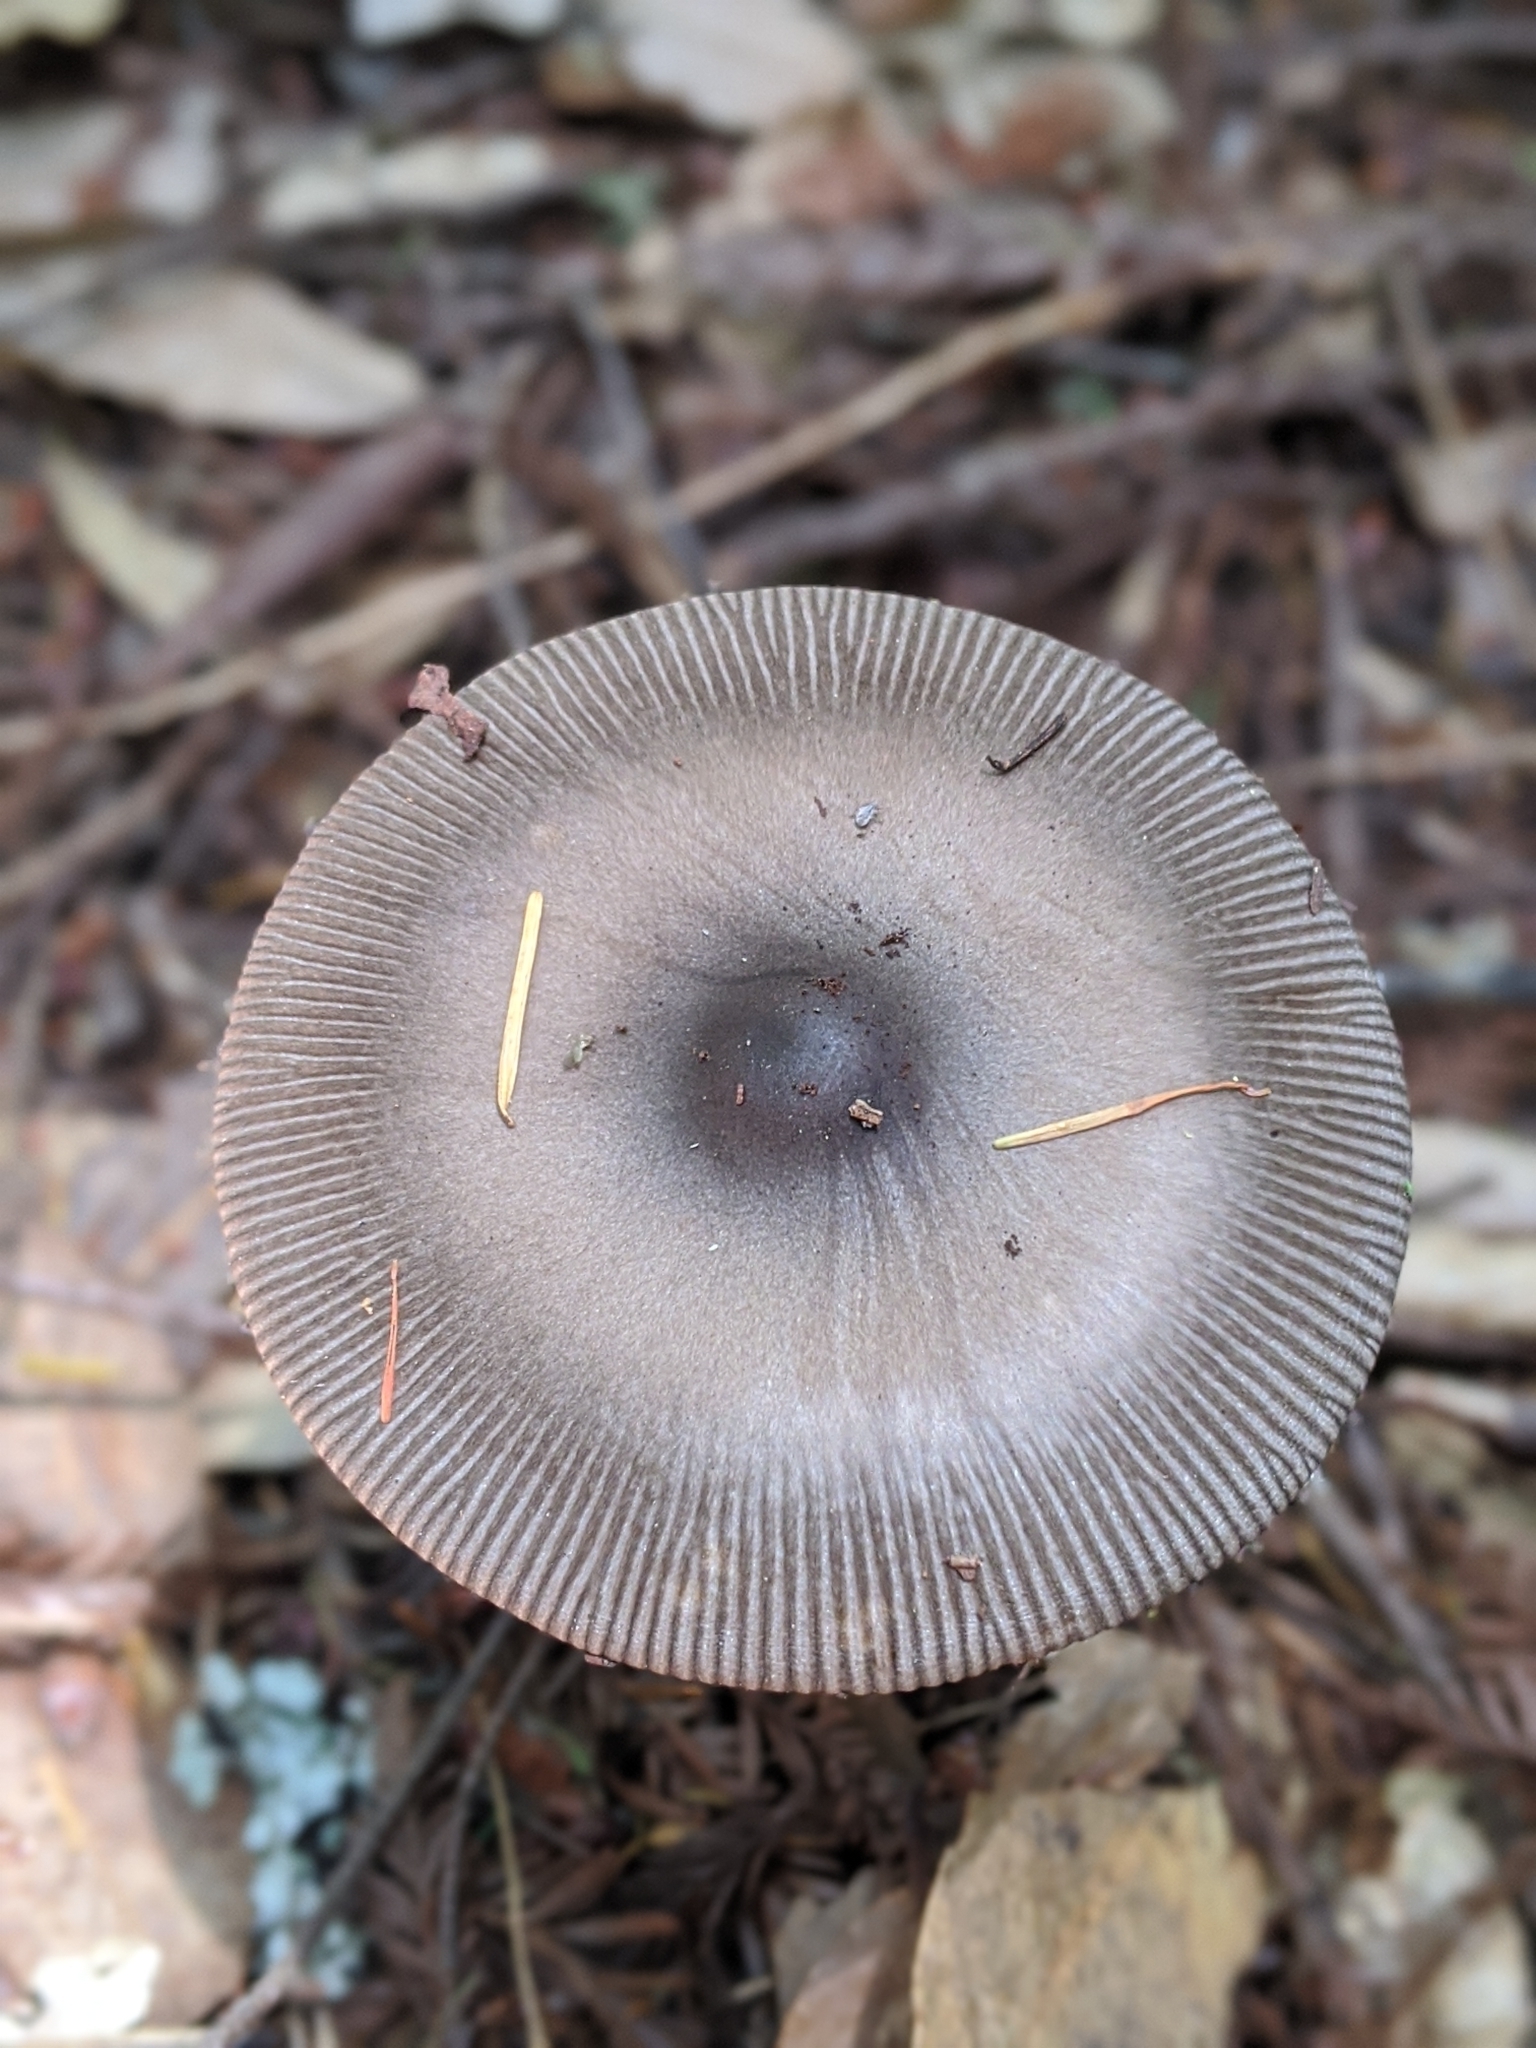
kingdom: Fungi
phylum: Basidiomycota
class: Agaricomycetes
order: Agaricales
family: Amanitaceae
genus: Amanita
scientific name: Amanita pachycolea
